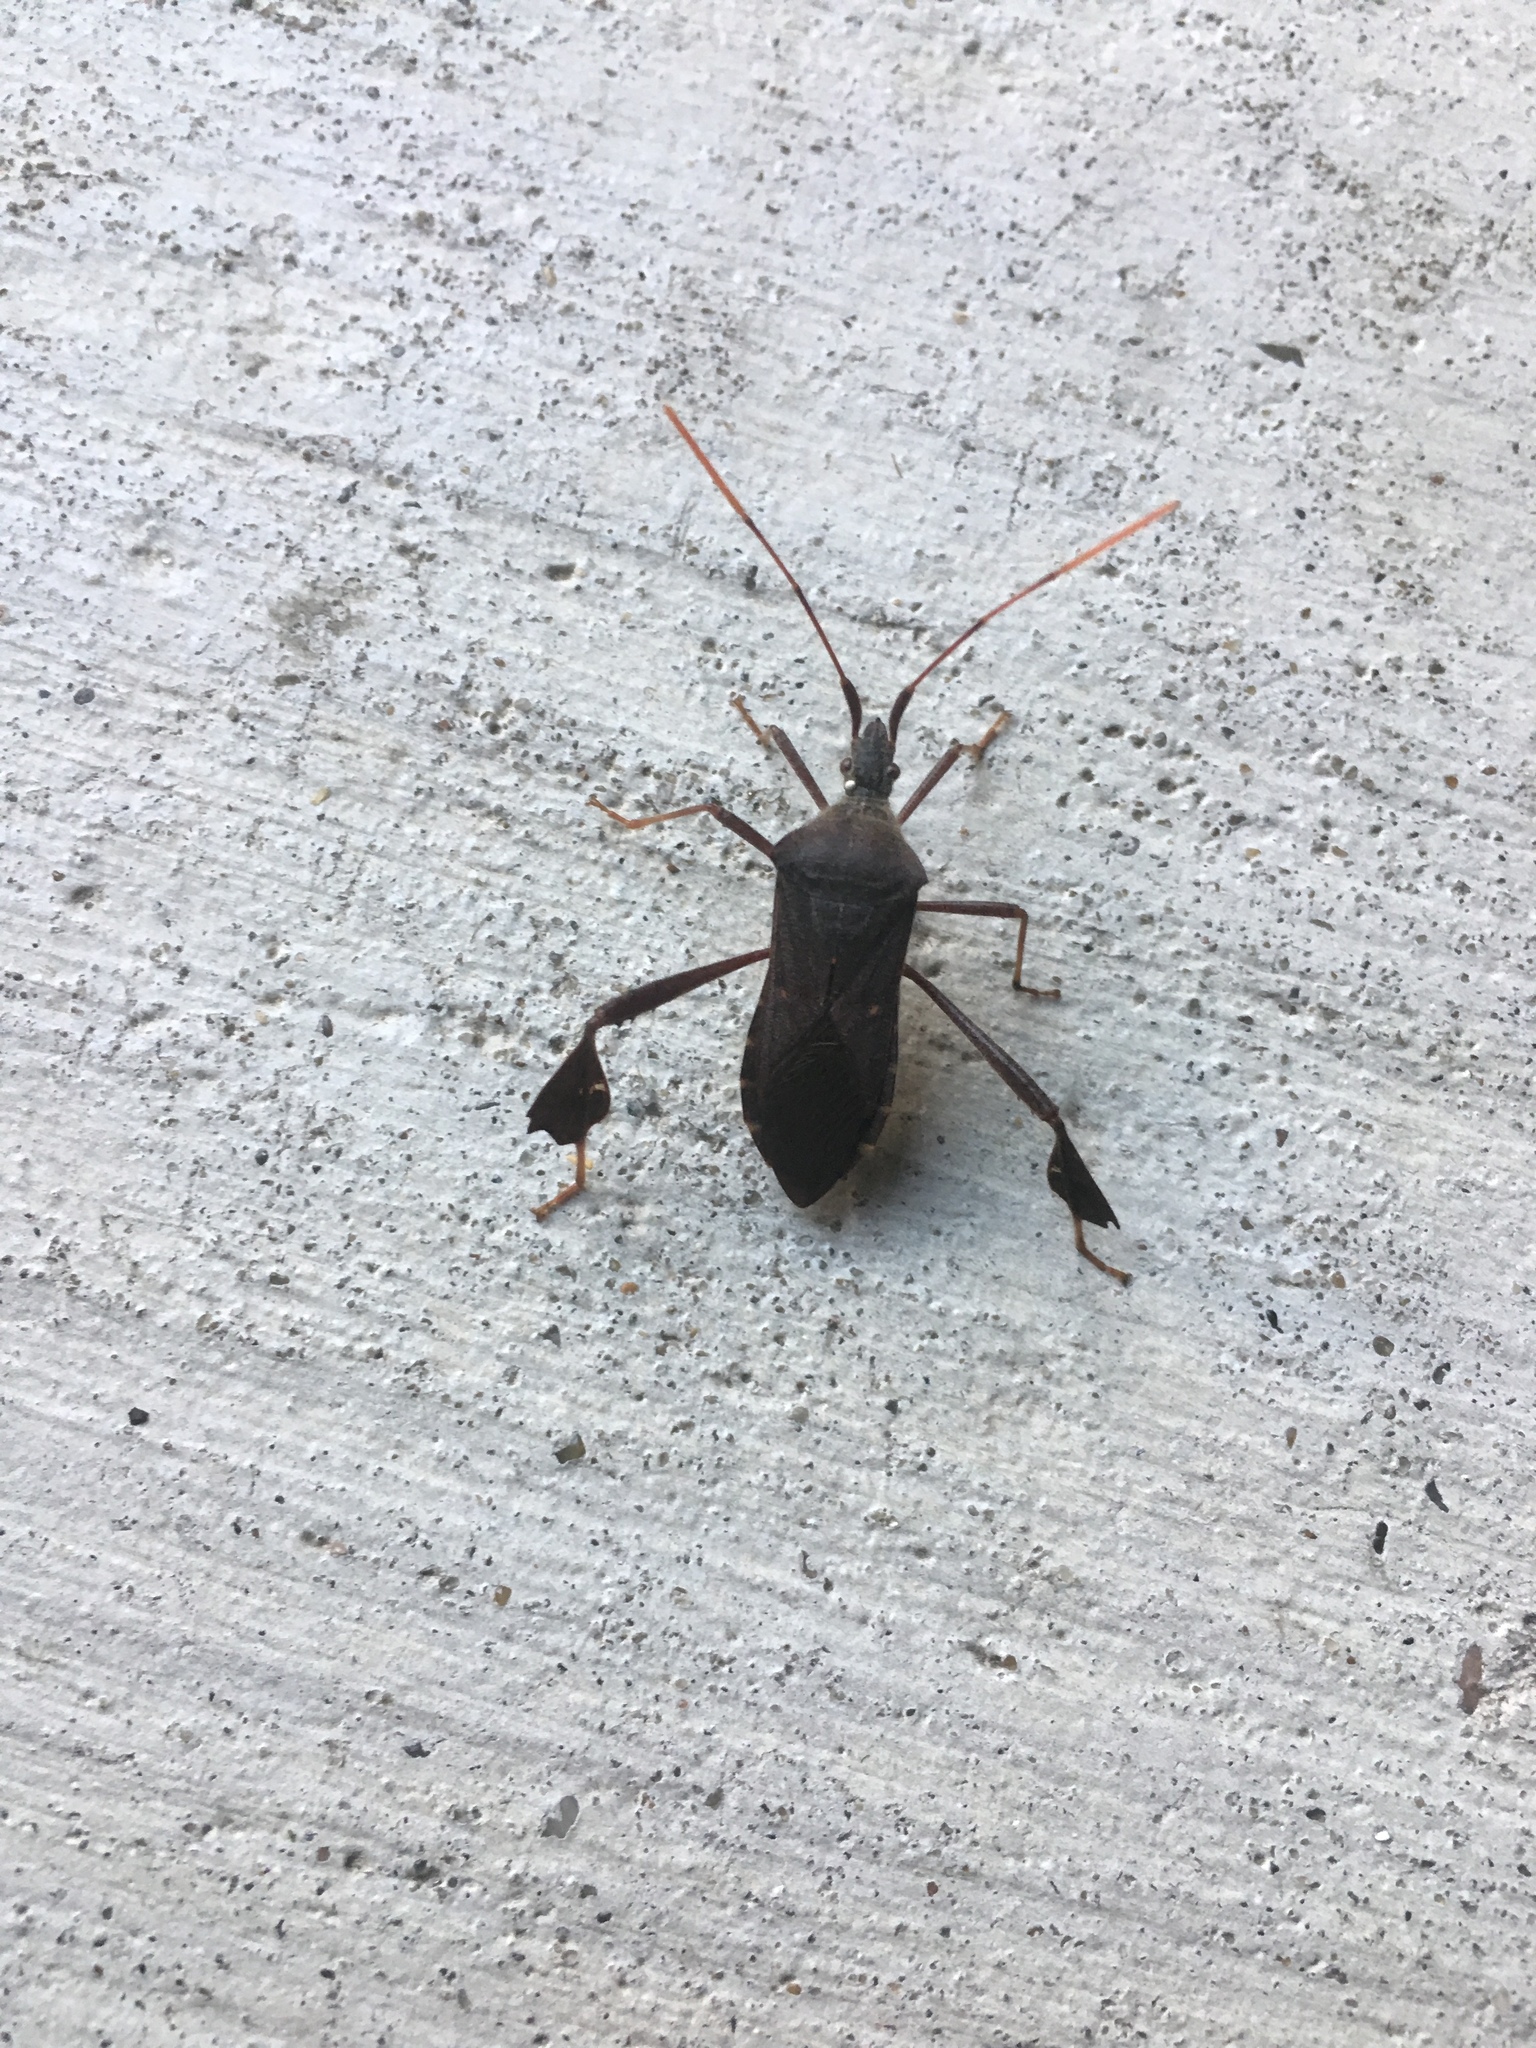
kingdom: Animalia
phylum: Arthropoda
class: Insecta
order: Hemiptera
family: Coreidae
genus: Leptoglossus
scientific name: Leptoglossus oppositus
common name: Northern leaf-footed bug
